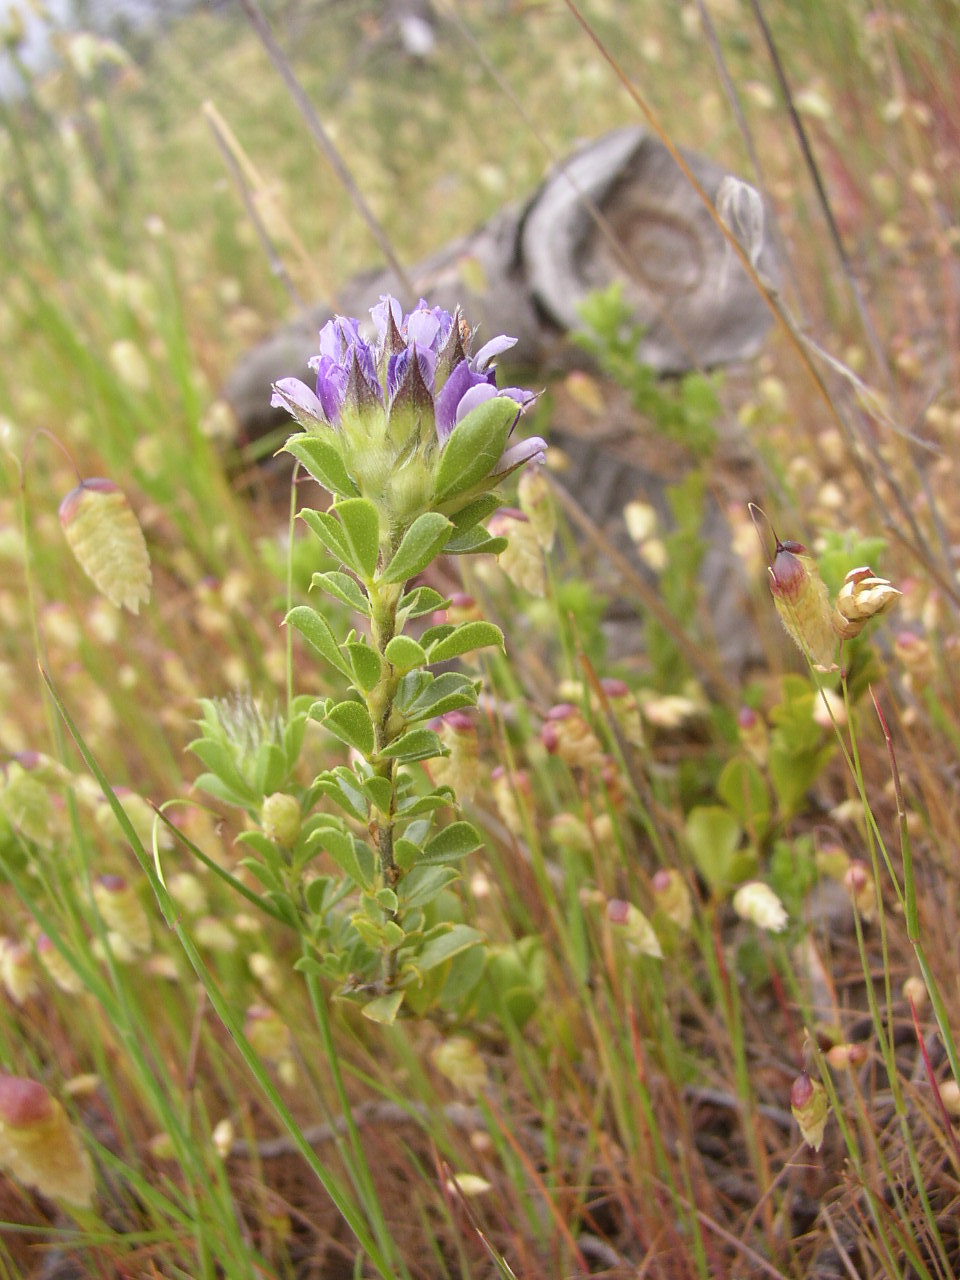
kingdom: Plantae
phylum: Tracheophyta
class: Magnoliopsida
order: Fabales
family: Fabaceae
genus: Psoralea
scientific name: Psoralea fruticans
